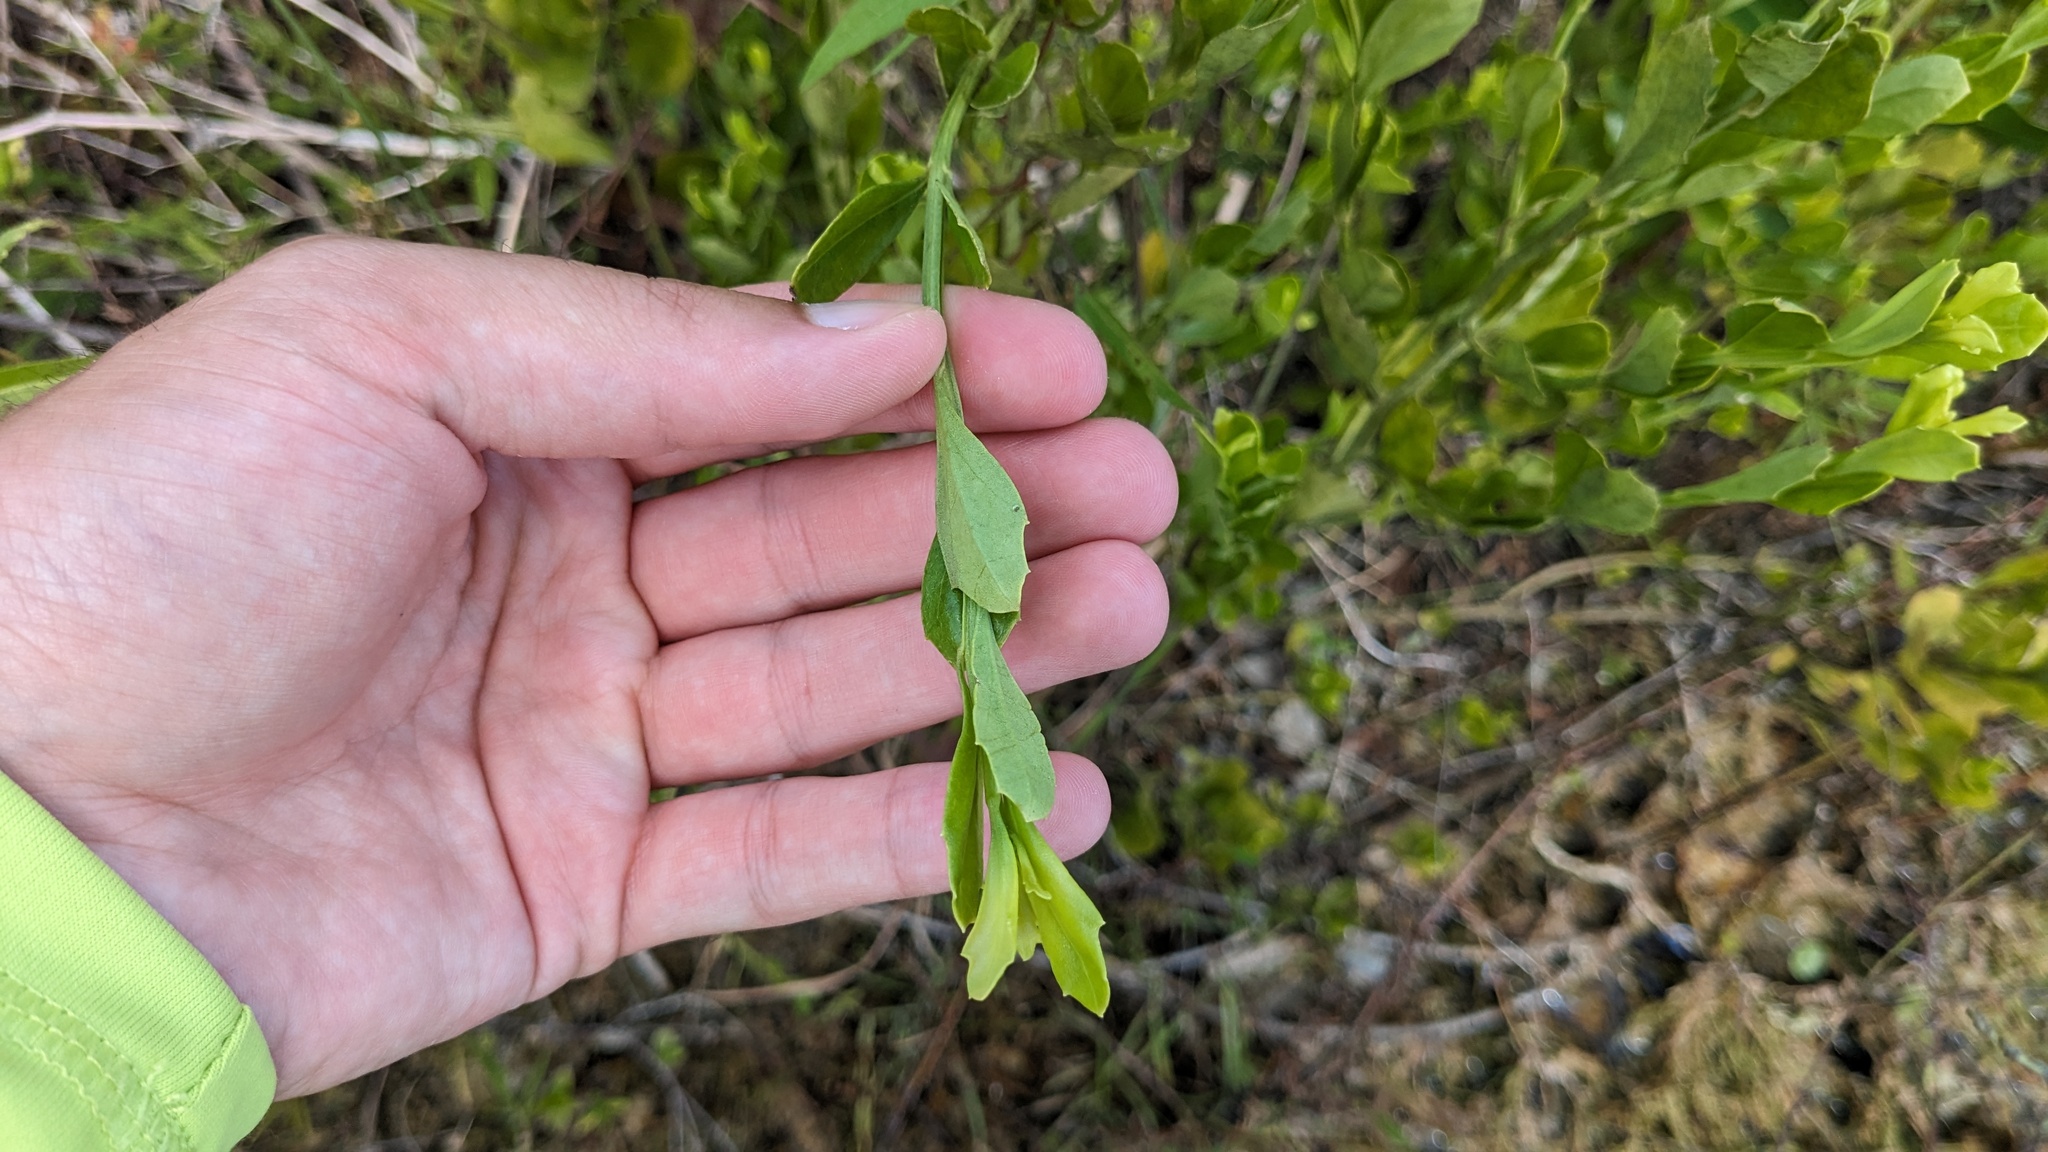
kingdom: Plantae
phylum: Tracheophyta
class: Magnoliopsida
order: Asterales
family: Asteraceae
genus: Baccharis
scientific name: Baccharis glomeruliflora
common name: Silverling groundsel bush
